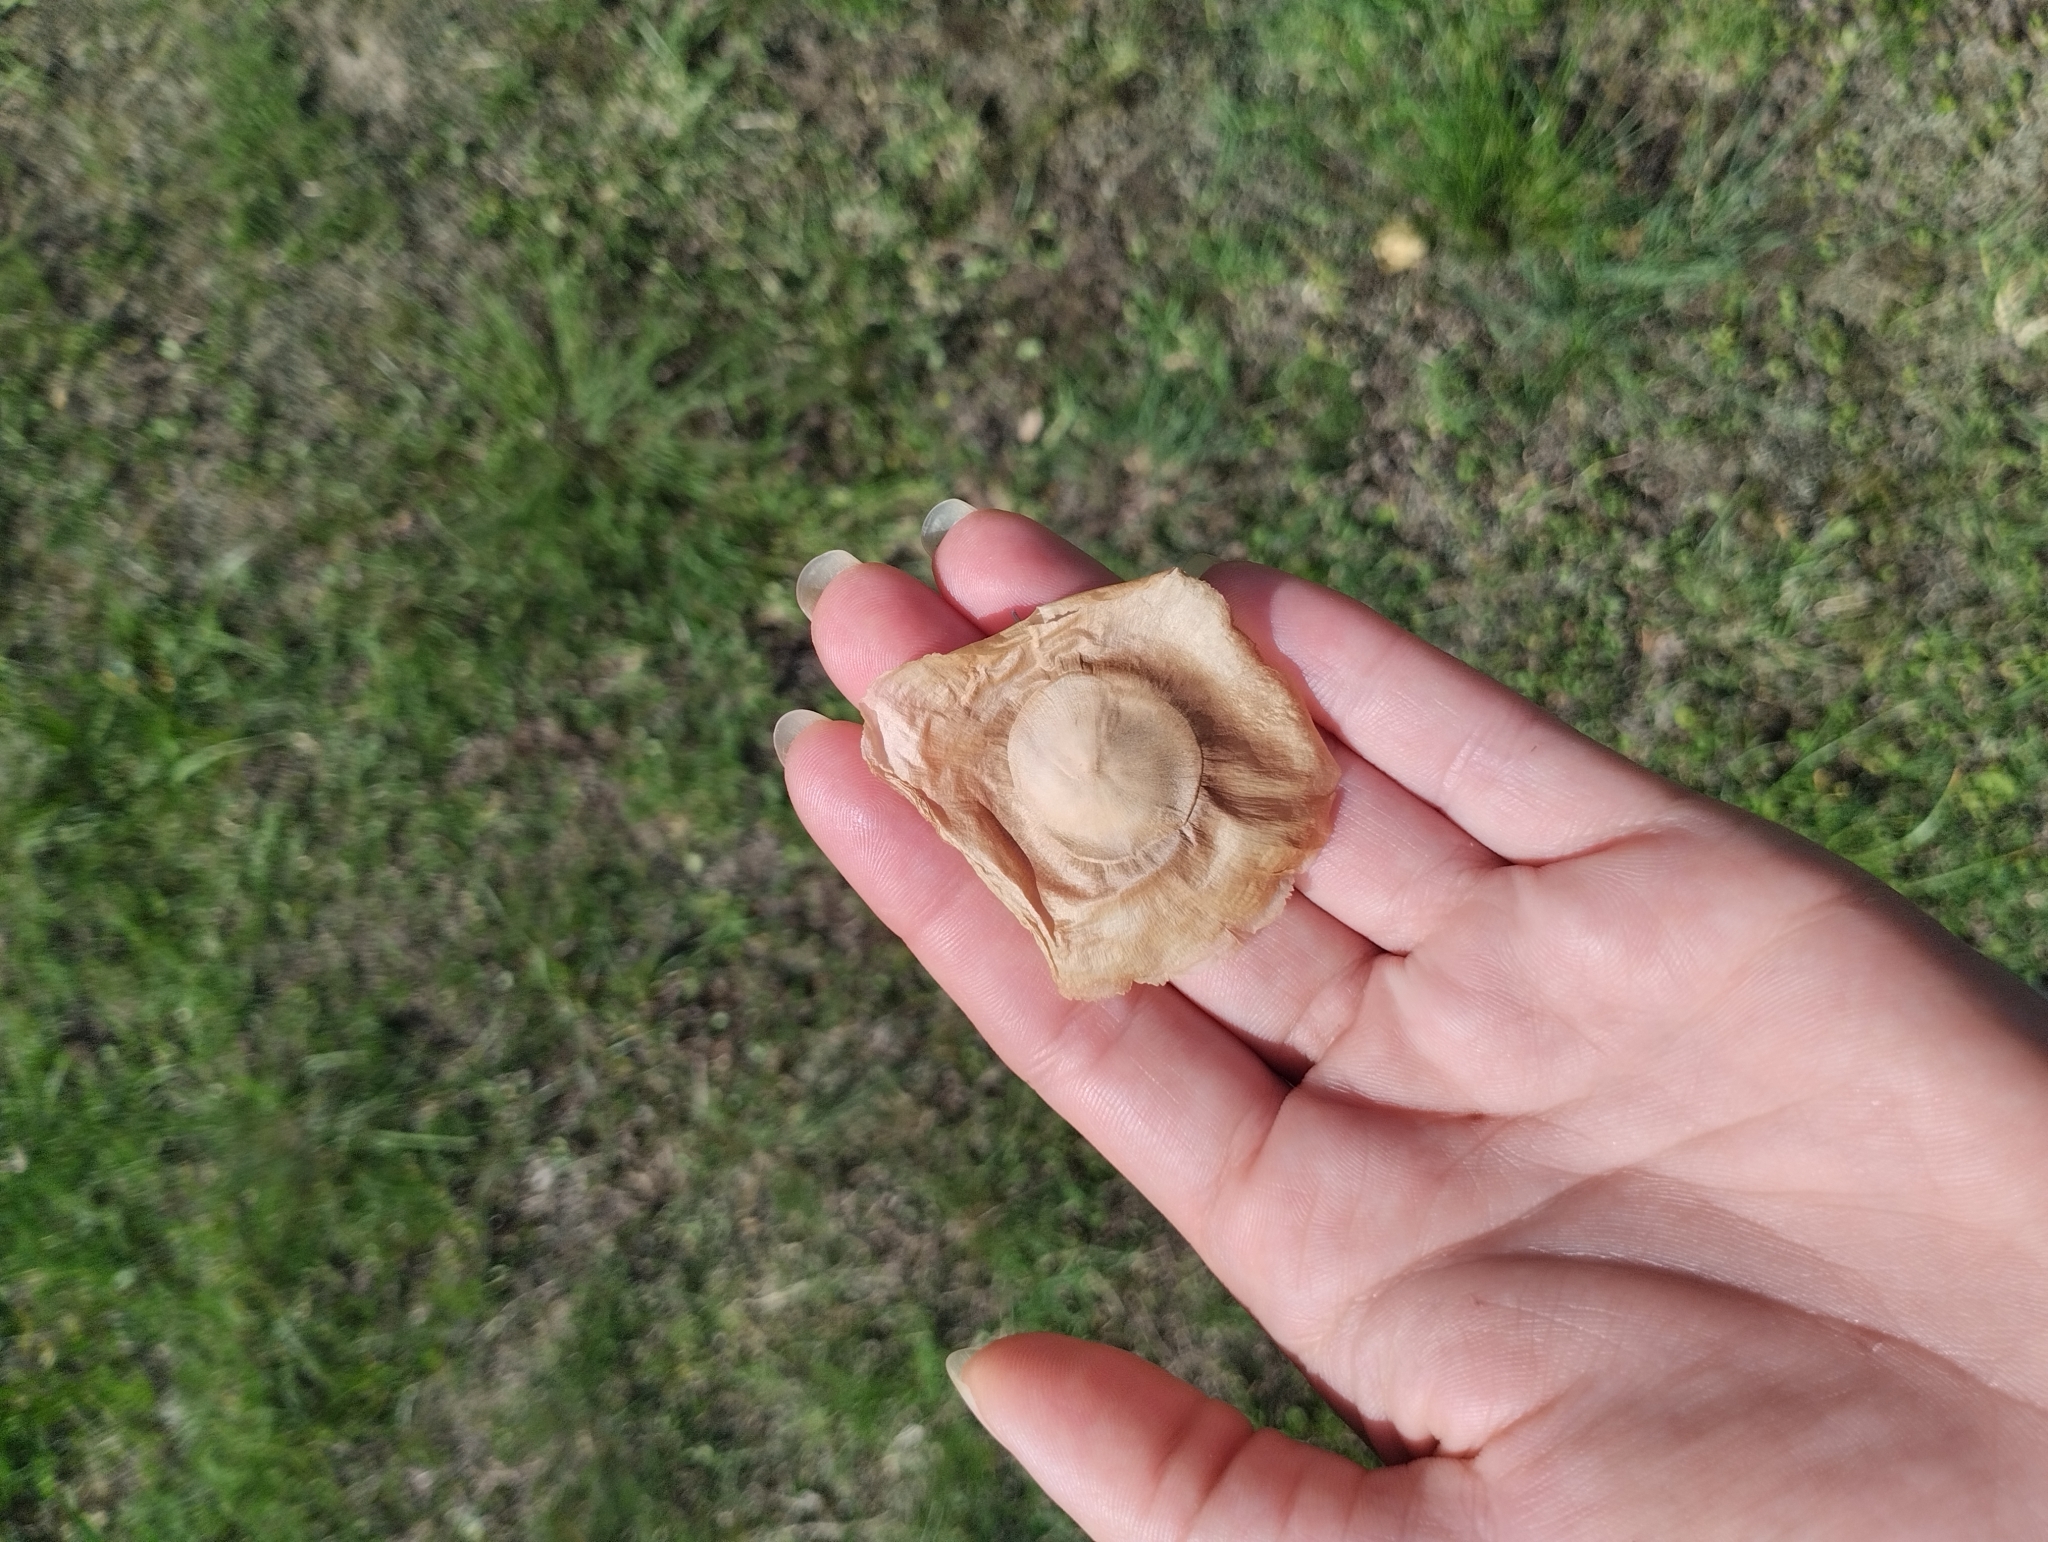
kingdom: Plantae
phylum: Tracheophyta
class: Magnoliopsida
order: Gentianales
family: Apocynaceae
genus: Aspidosperma
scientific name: Aspidosperma quebracho-blanco
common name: White quebracho
